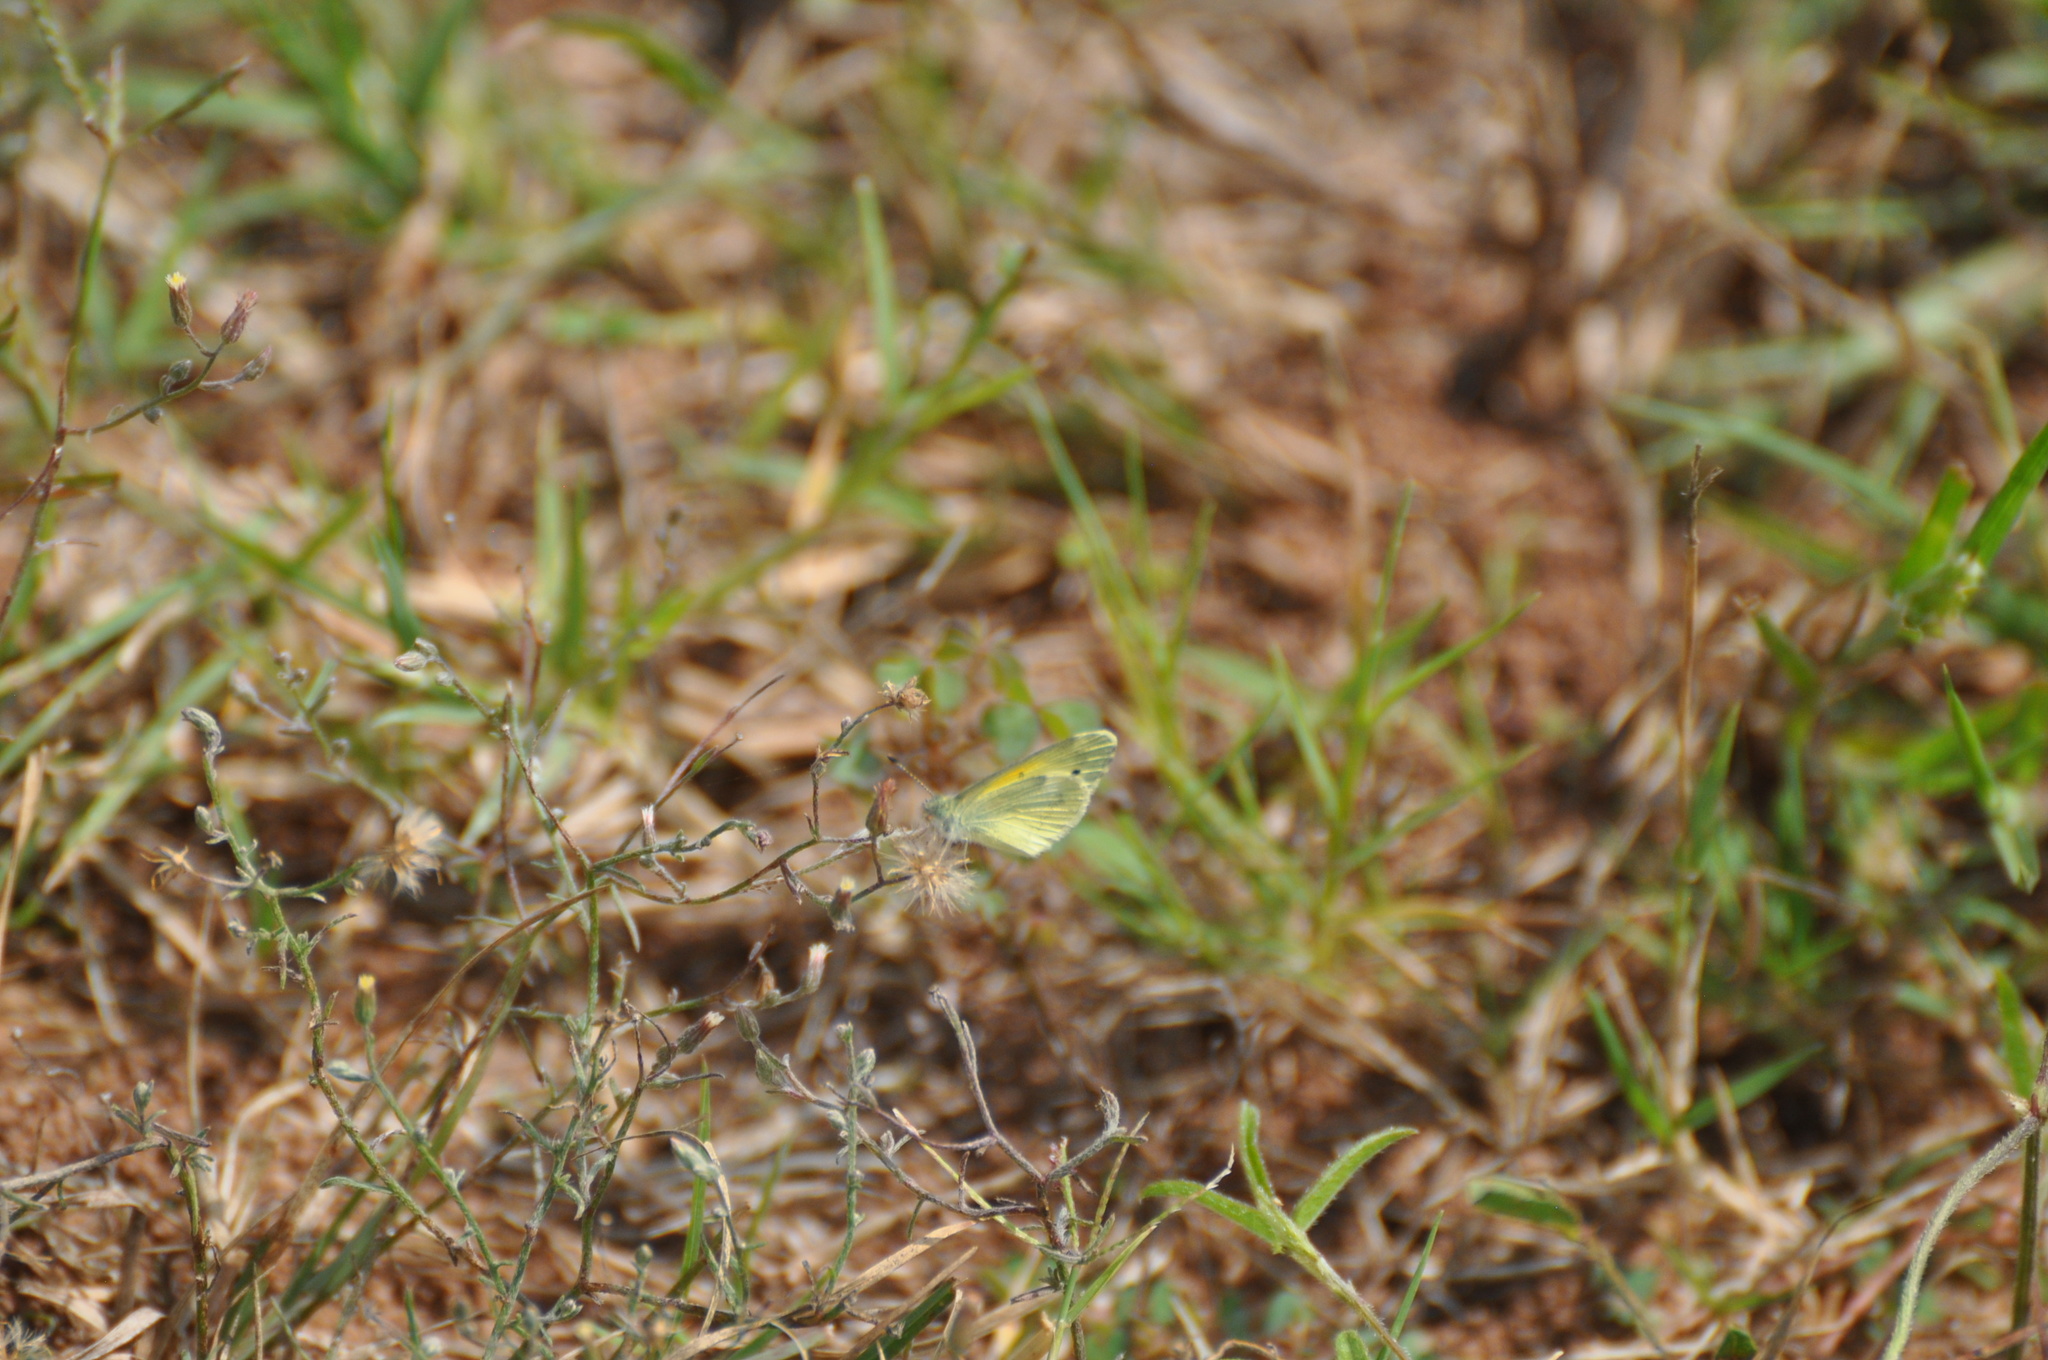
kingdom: Animalia
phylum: Arthropoda
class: Insecta
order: Lepidoptera
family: Pieridae
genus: Nathalis
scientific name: Nathalis iole
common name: Dainty sulphur
